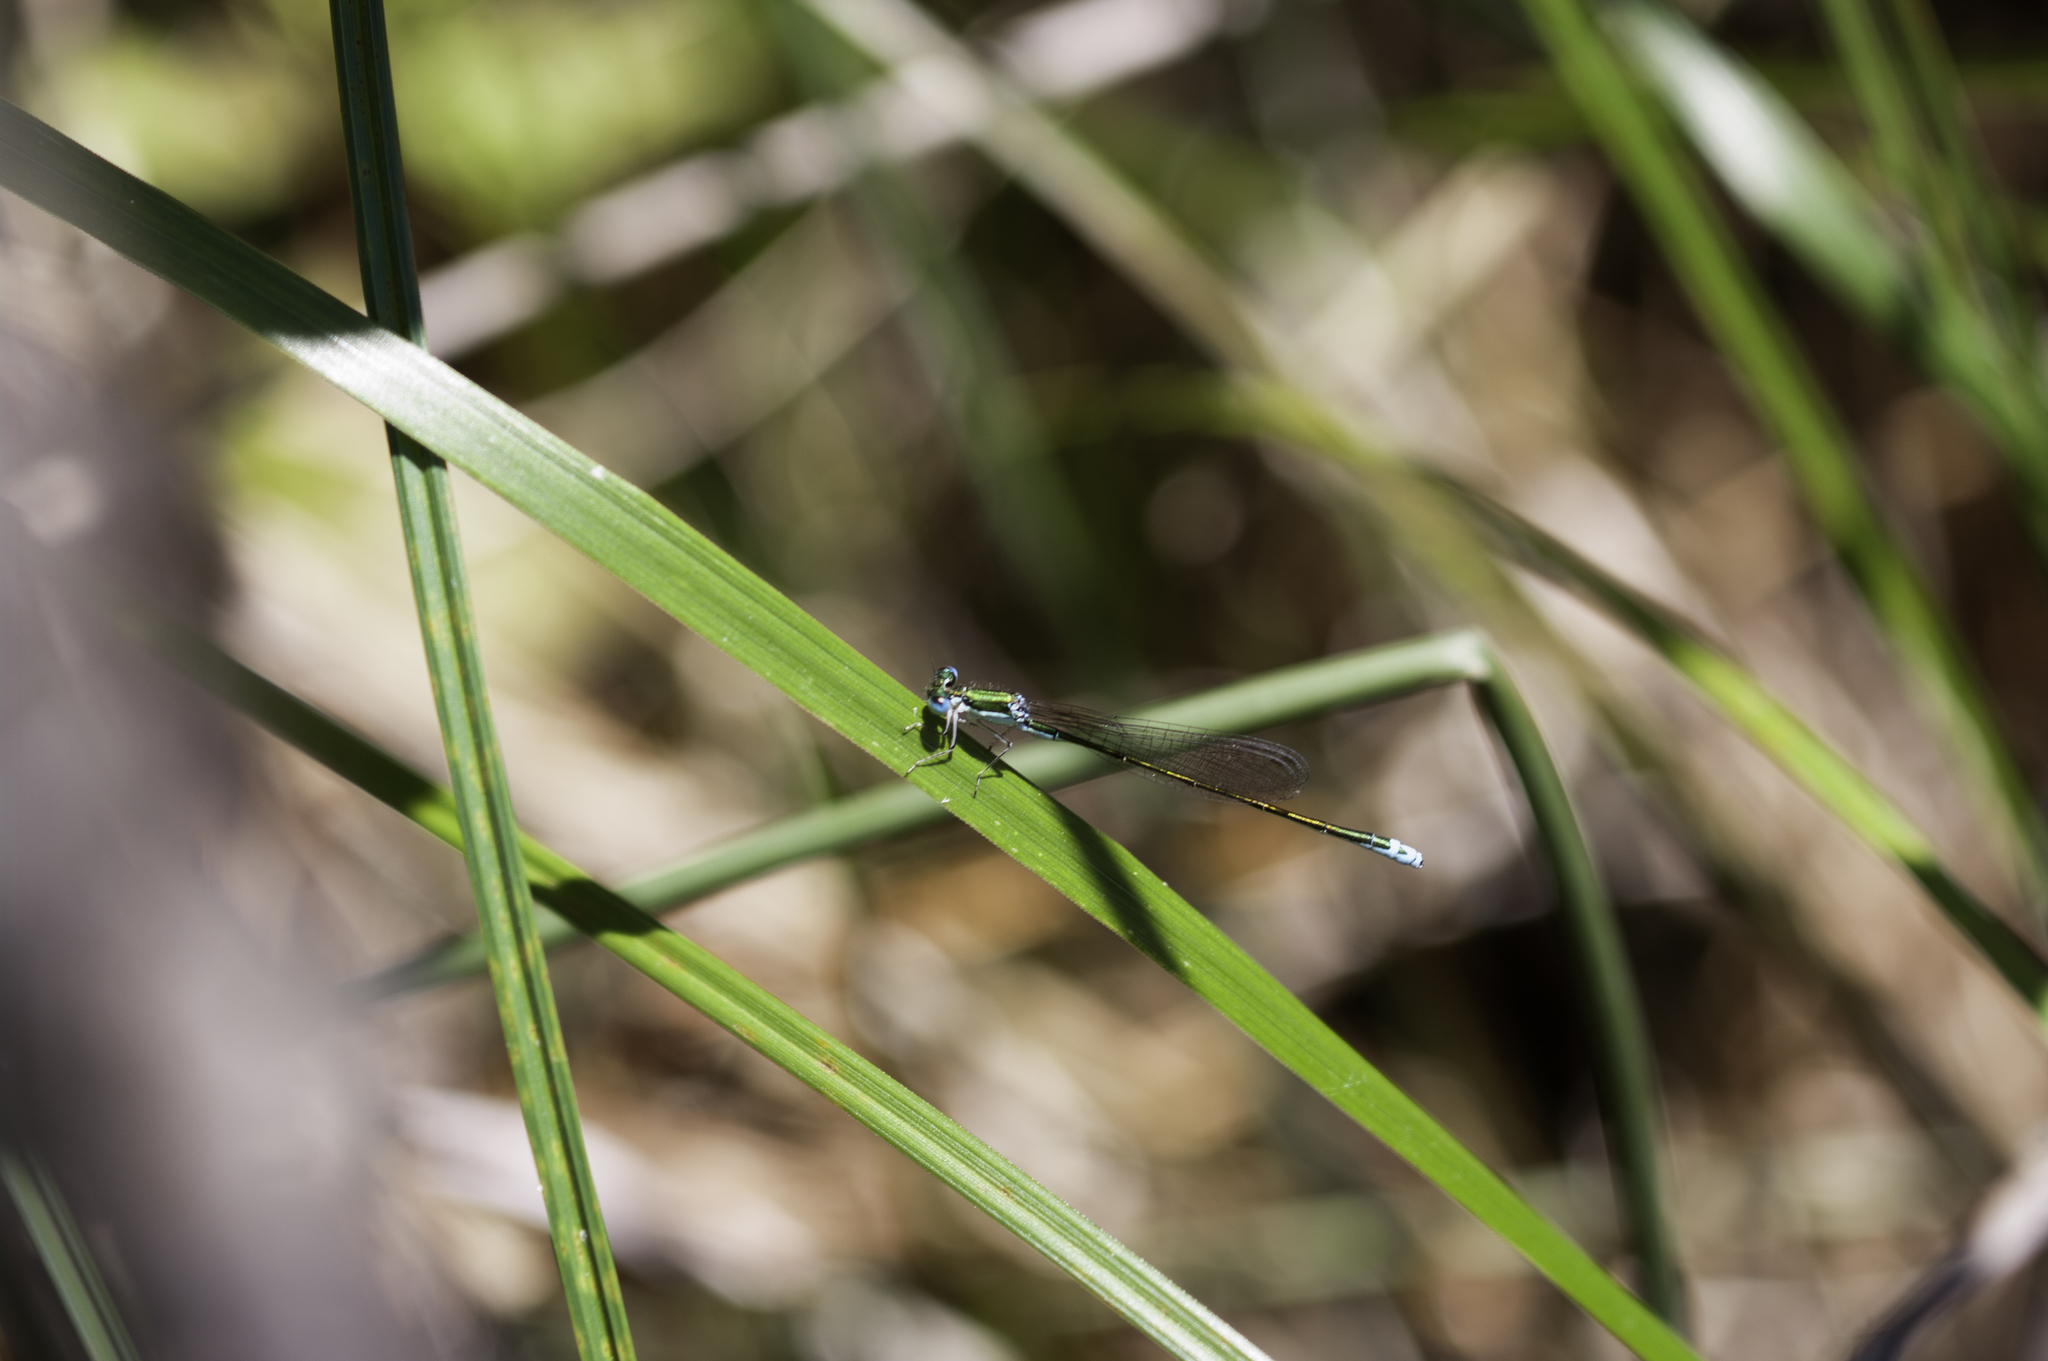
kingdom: Animalia
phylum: Arthropoda
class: Insecta
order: Odonata
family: Coenagrionidae
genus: Nehalennia
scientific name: Nehalennia irene
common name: Sedge sprite
